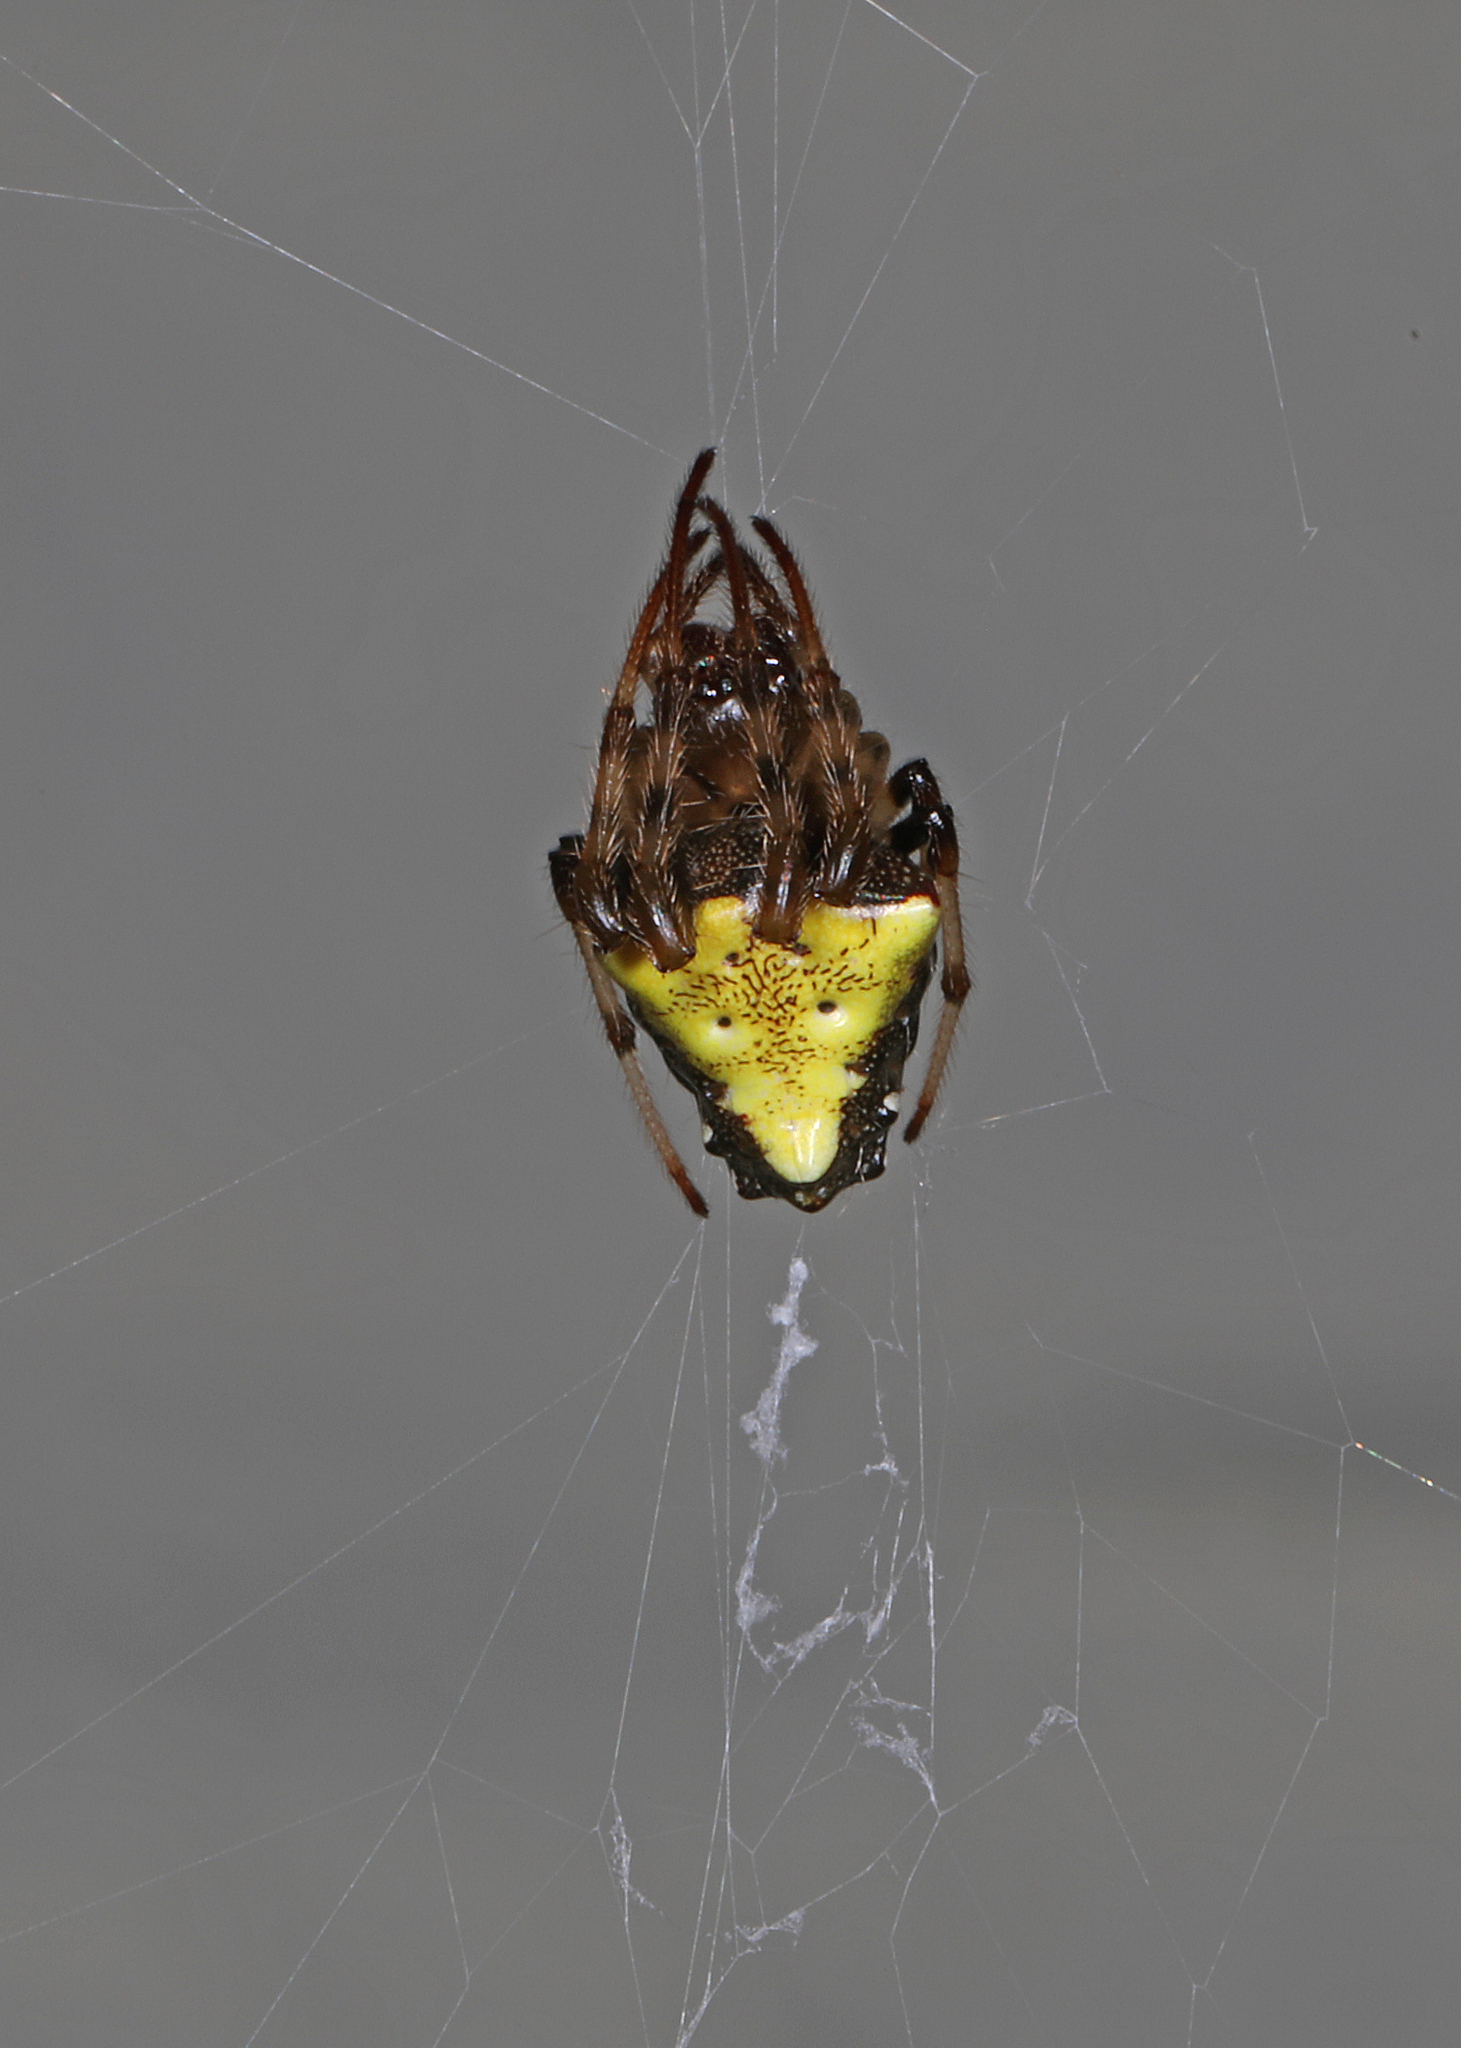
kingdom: Animalia
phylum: Arthropoda
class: Arachnida
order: Araneae
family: Araneidae
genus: Verrucosa
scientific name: Verrucosa arenata
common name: Orb weavers
